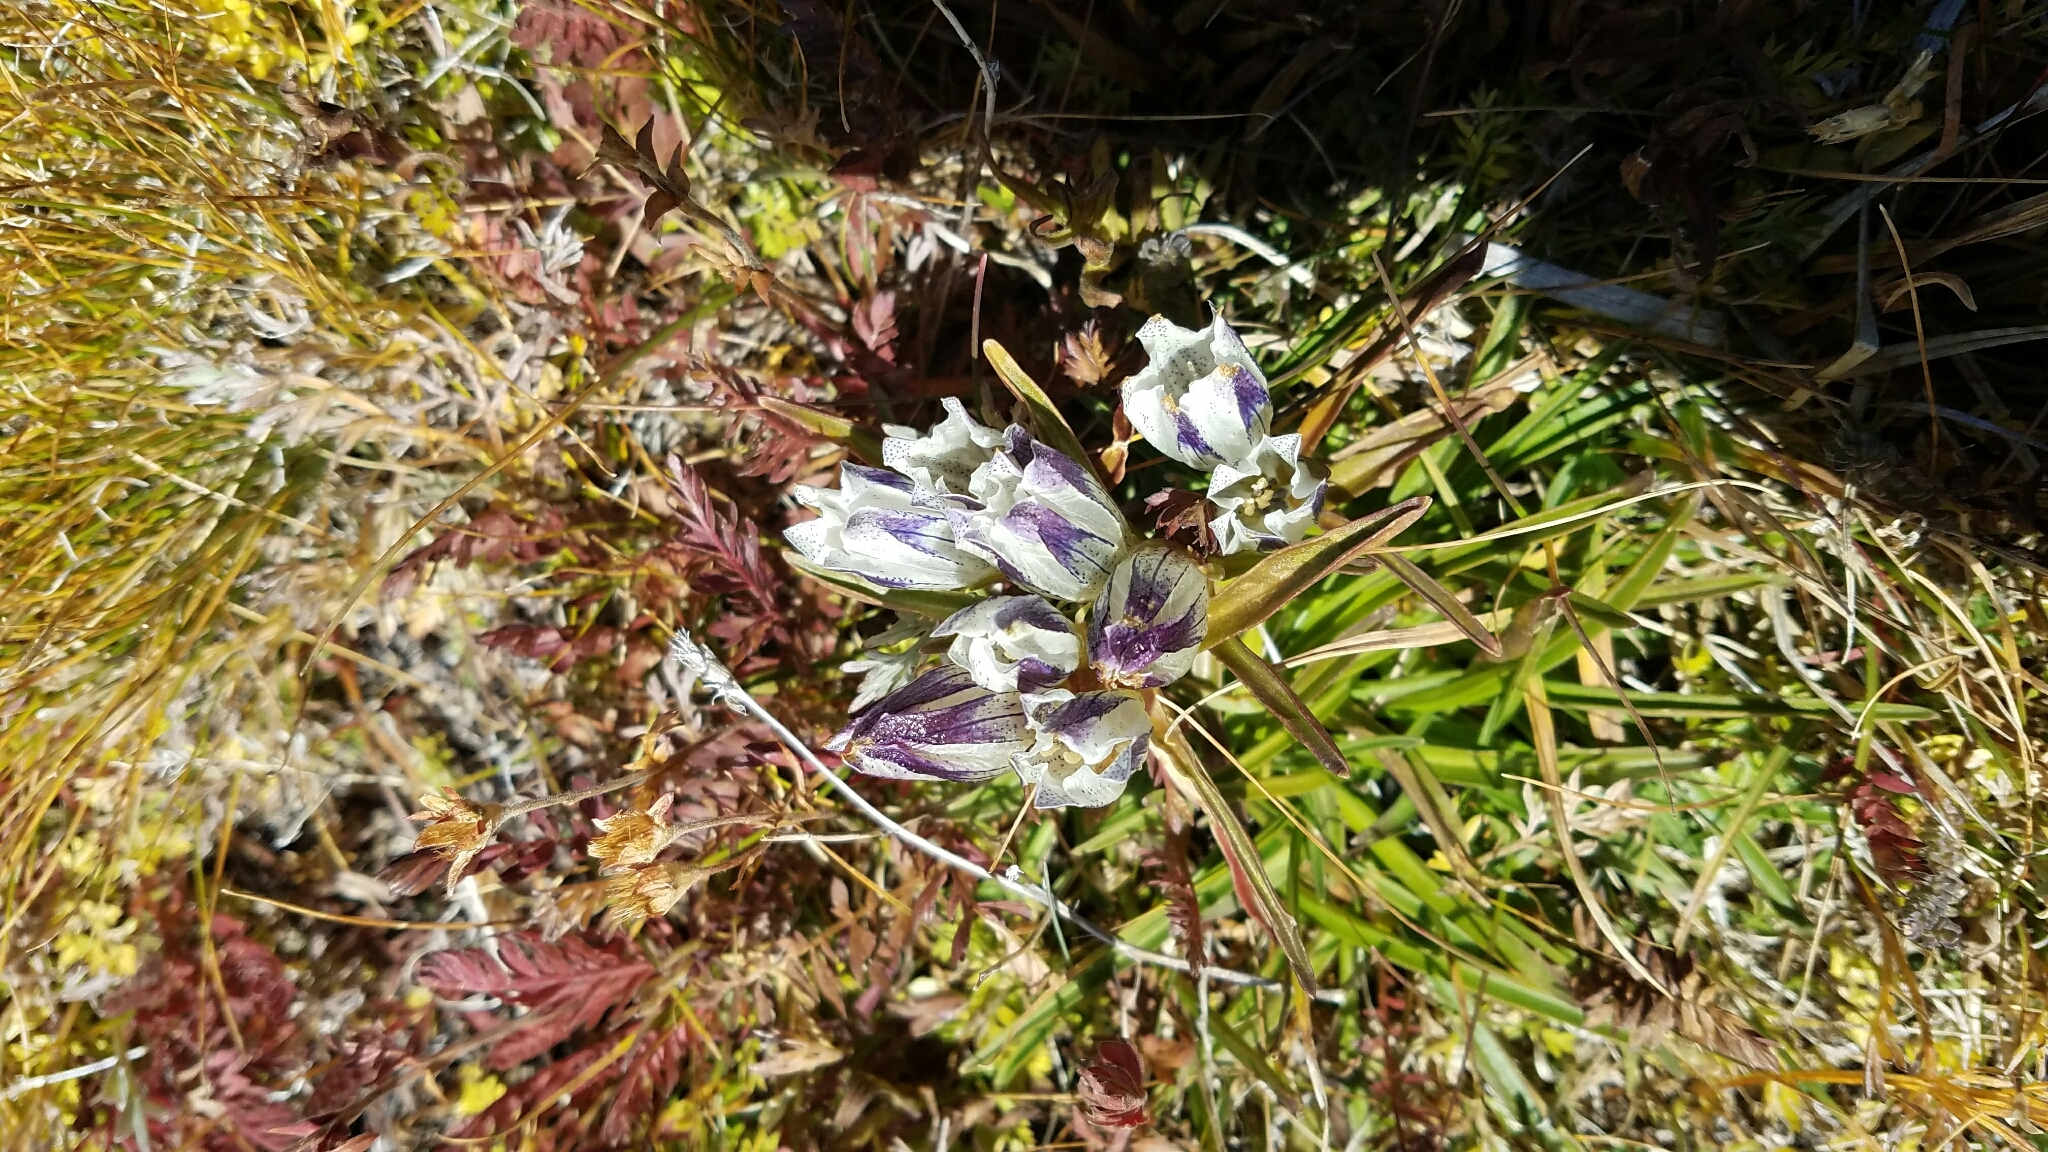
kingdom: Plantae
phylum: Tracheophyta
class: Magnoliopsida
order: Gentianales
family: Gentianaceae
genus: Gentiana
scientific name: Gentiana algida
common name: Arctic gentian
